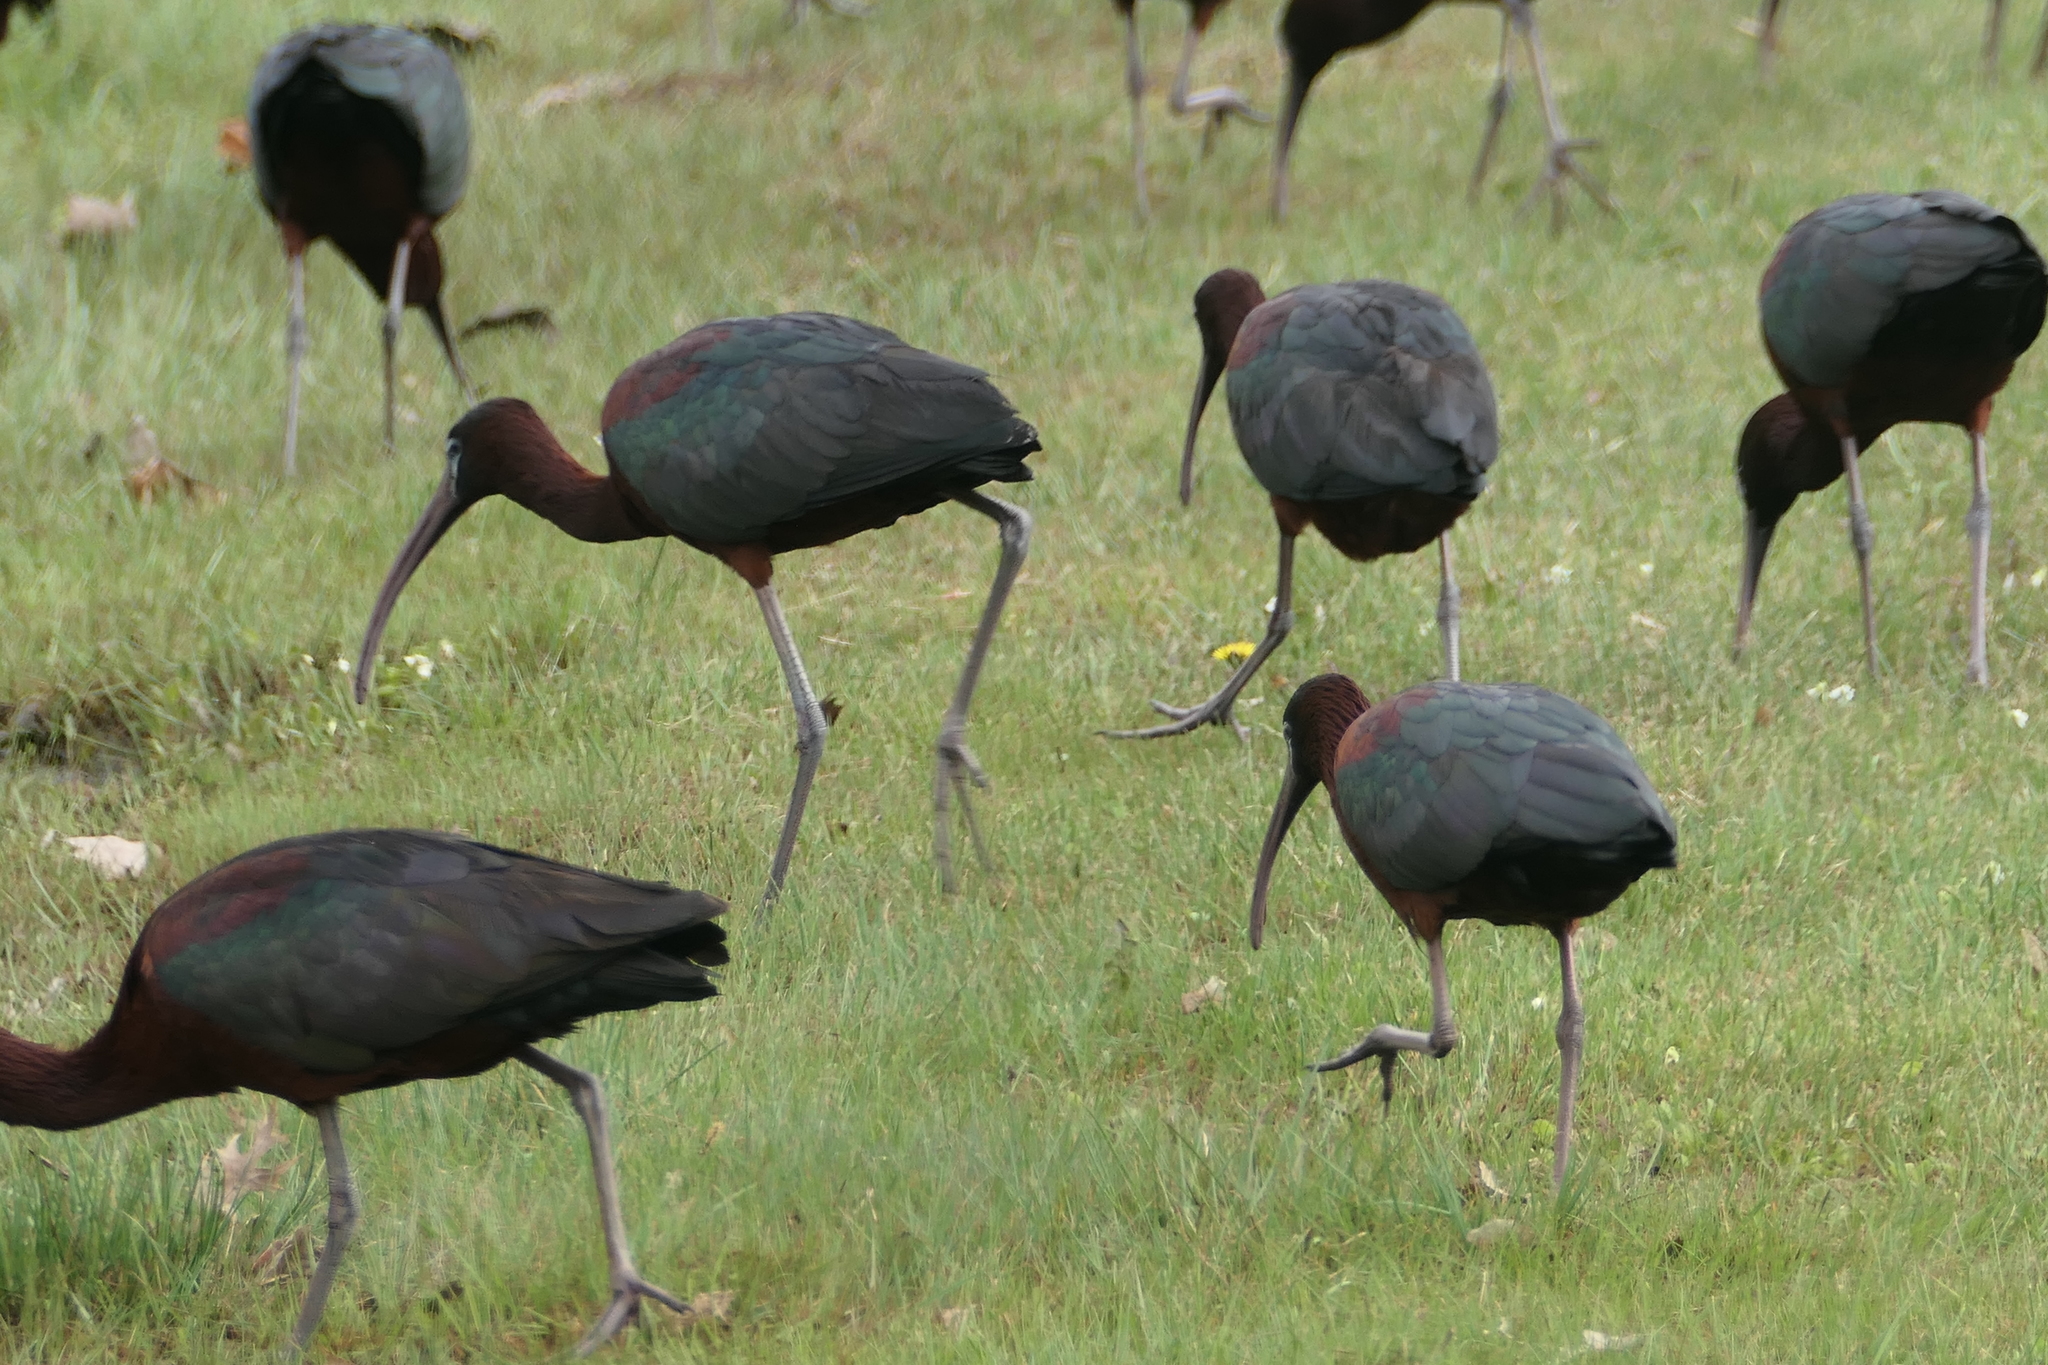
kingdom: Animalia
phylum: Chordata
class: Aves
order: Pelecaniformes
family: Threskiornithidae
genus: Plegadis
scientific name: Plegadis falcinellus
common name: Glossy ibis
